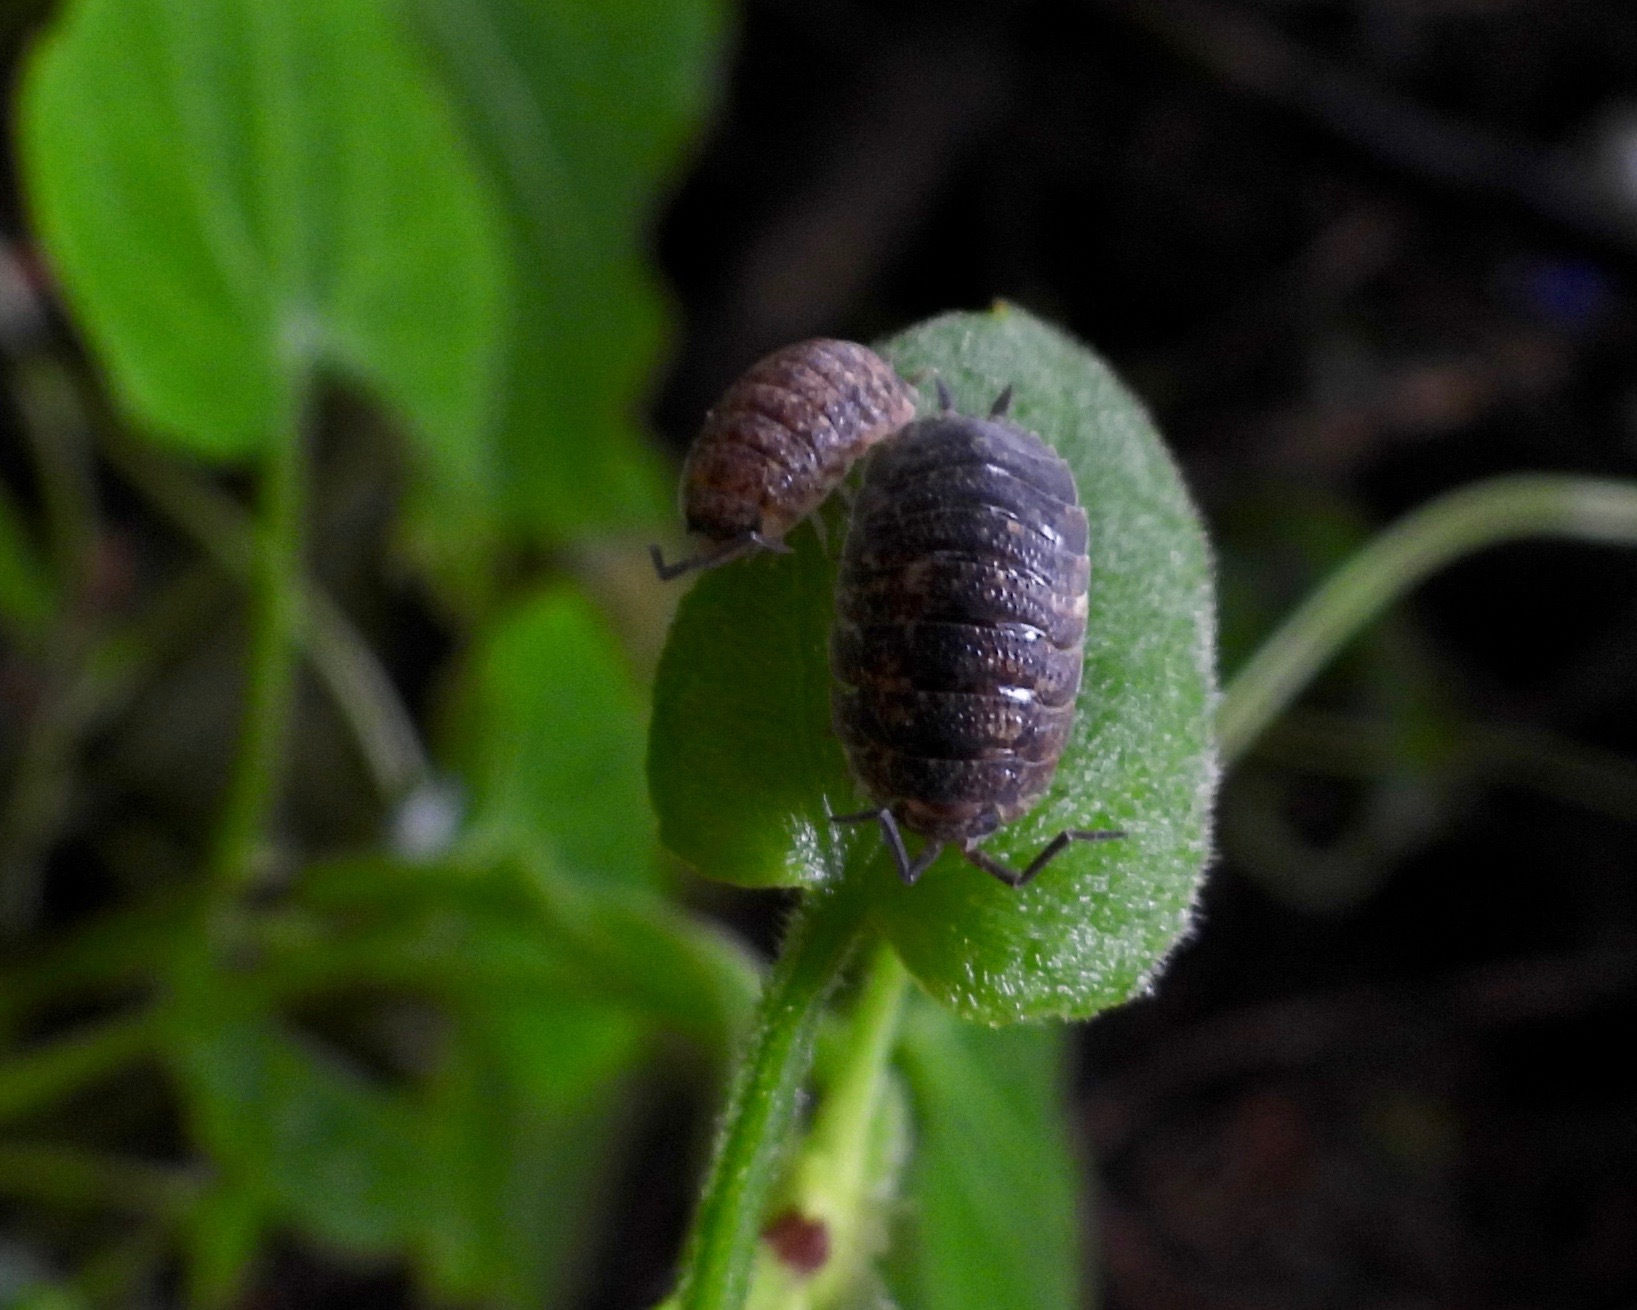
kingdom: Animalia
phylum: Arthropoda
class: Malacostraca
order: Isopoda
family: Porcellionidae
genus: Porcellio
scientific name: Porcellio scaber
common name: Common rough woodlouse
